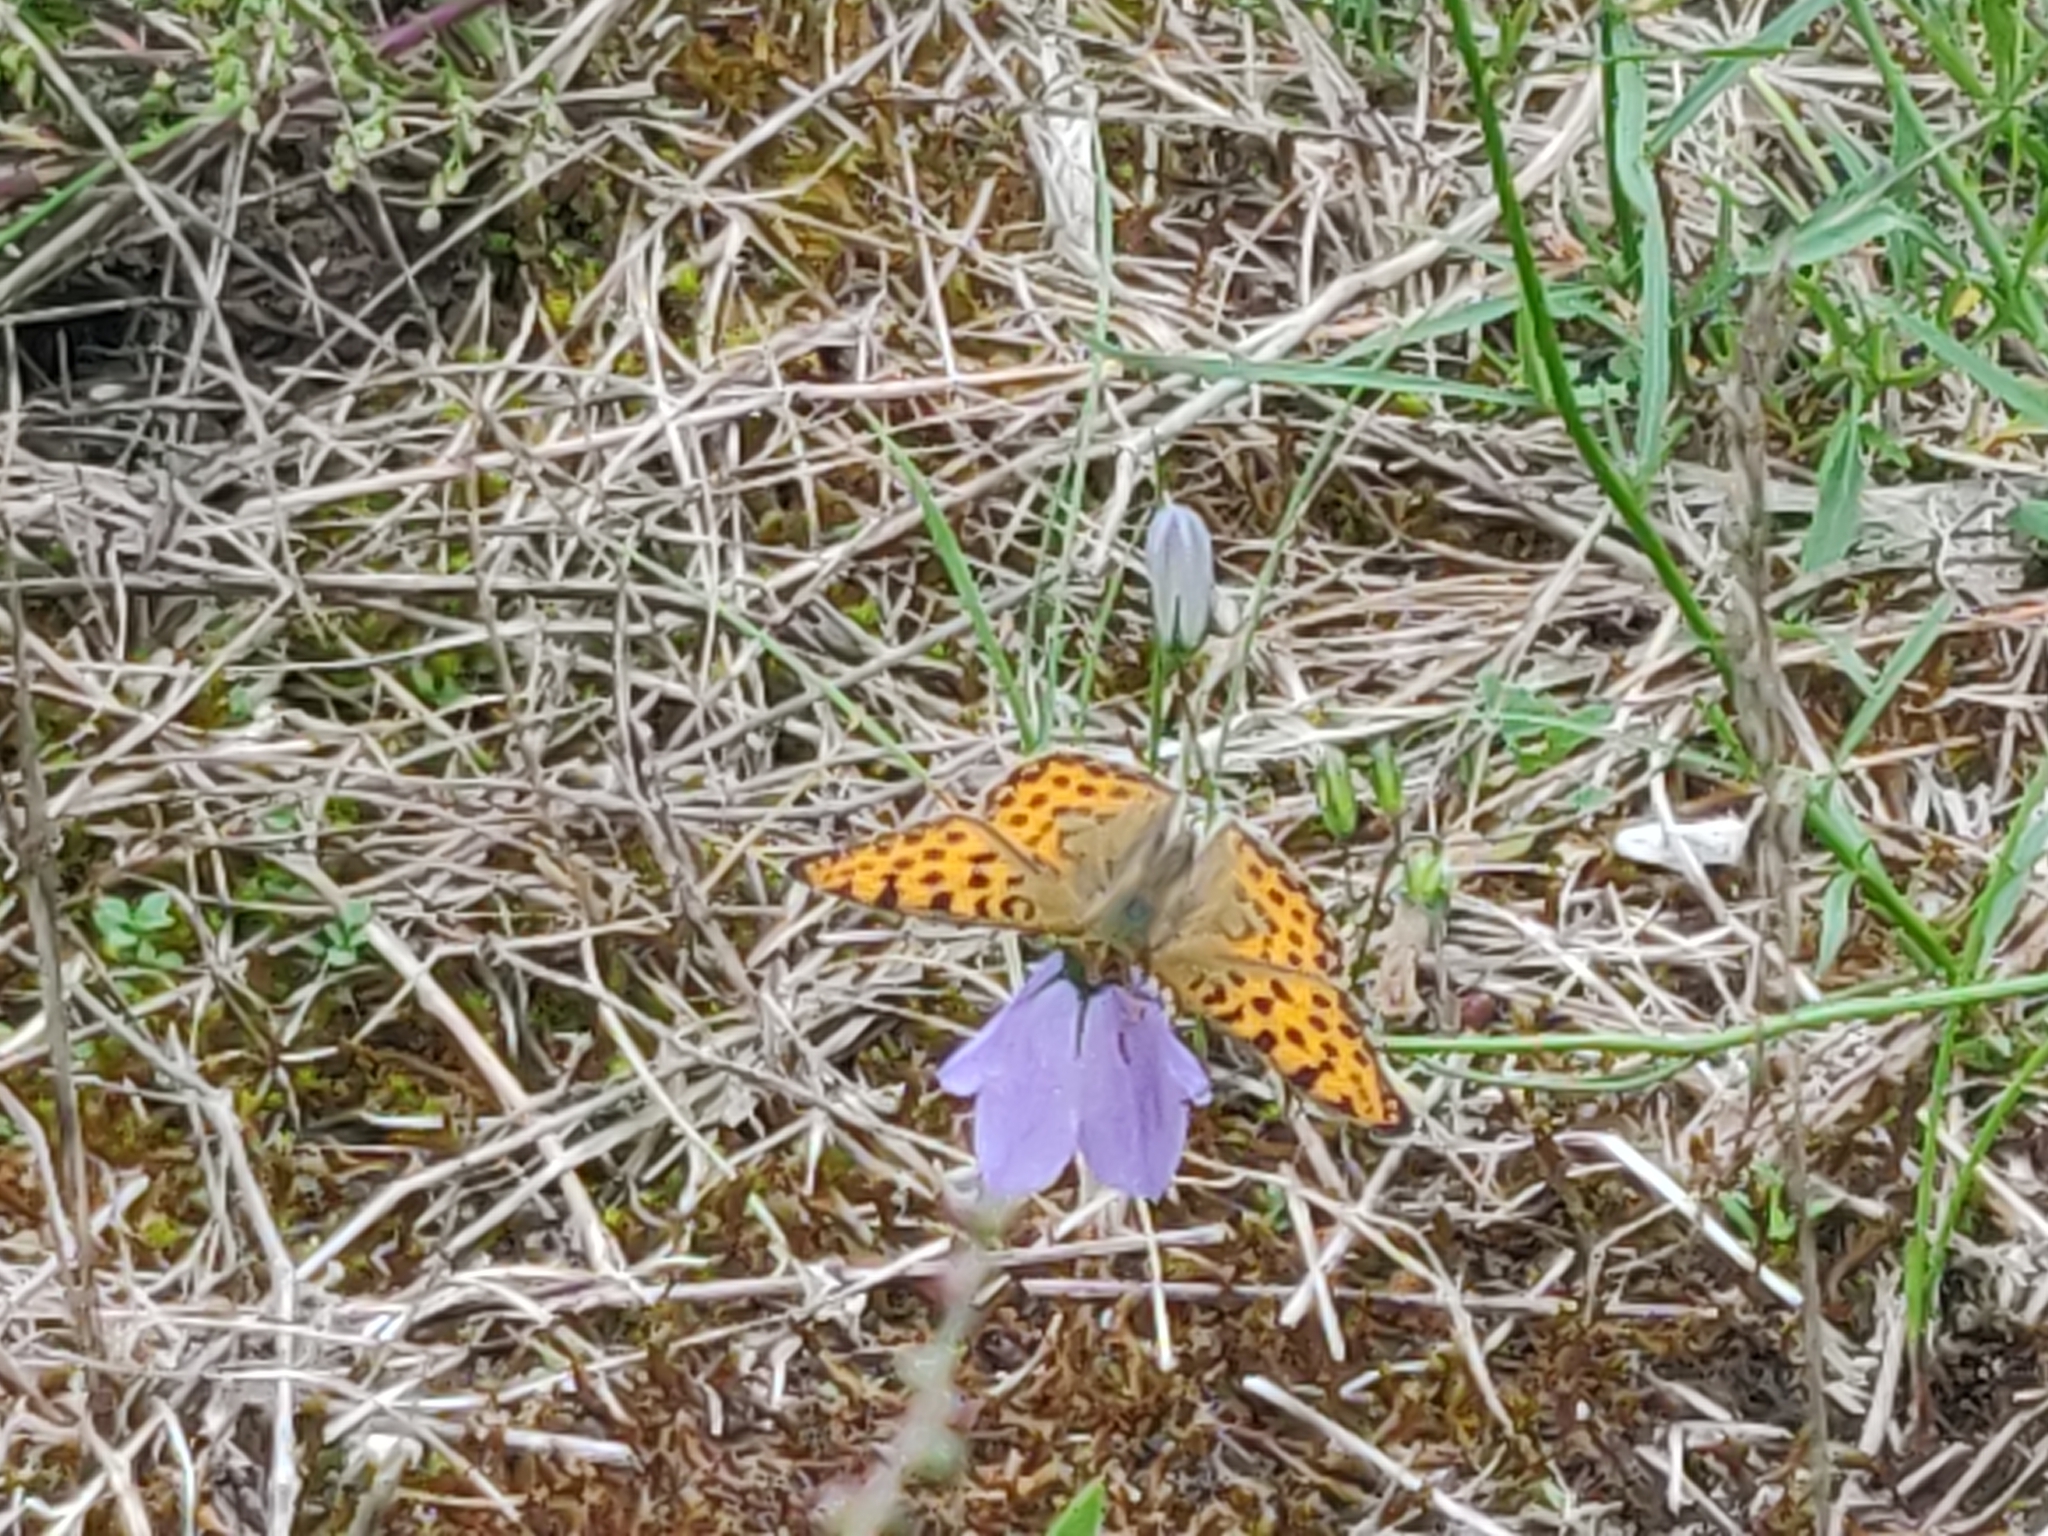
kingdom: Animalia
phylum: Arthropoda
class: Insecta
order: Lepidoptera
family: Nymphalidae
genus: Issoria
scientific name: Issoria lathonia
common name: Queen of spain fritillary
